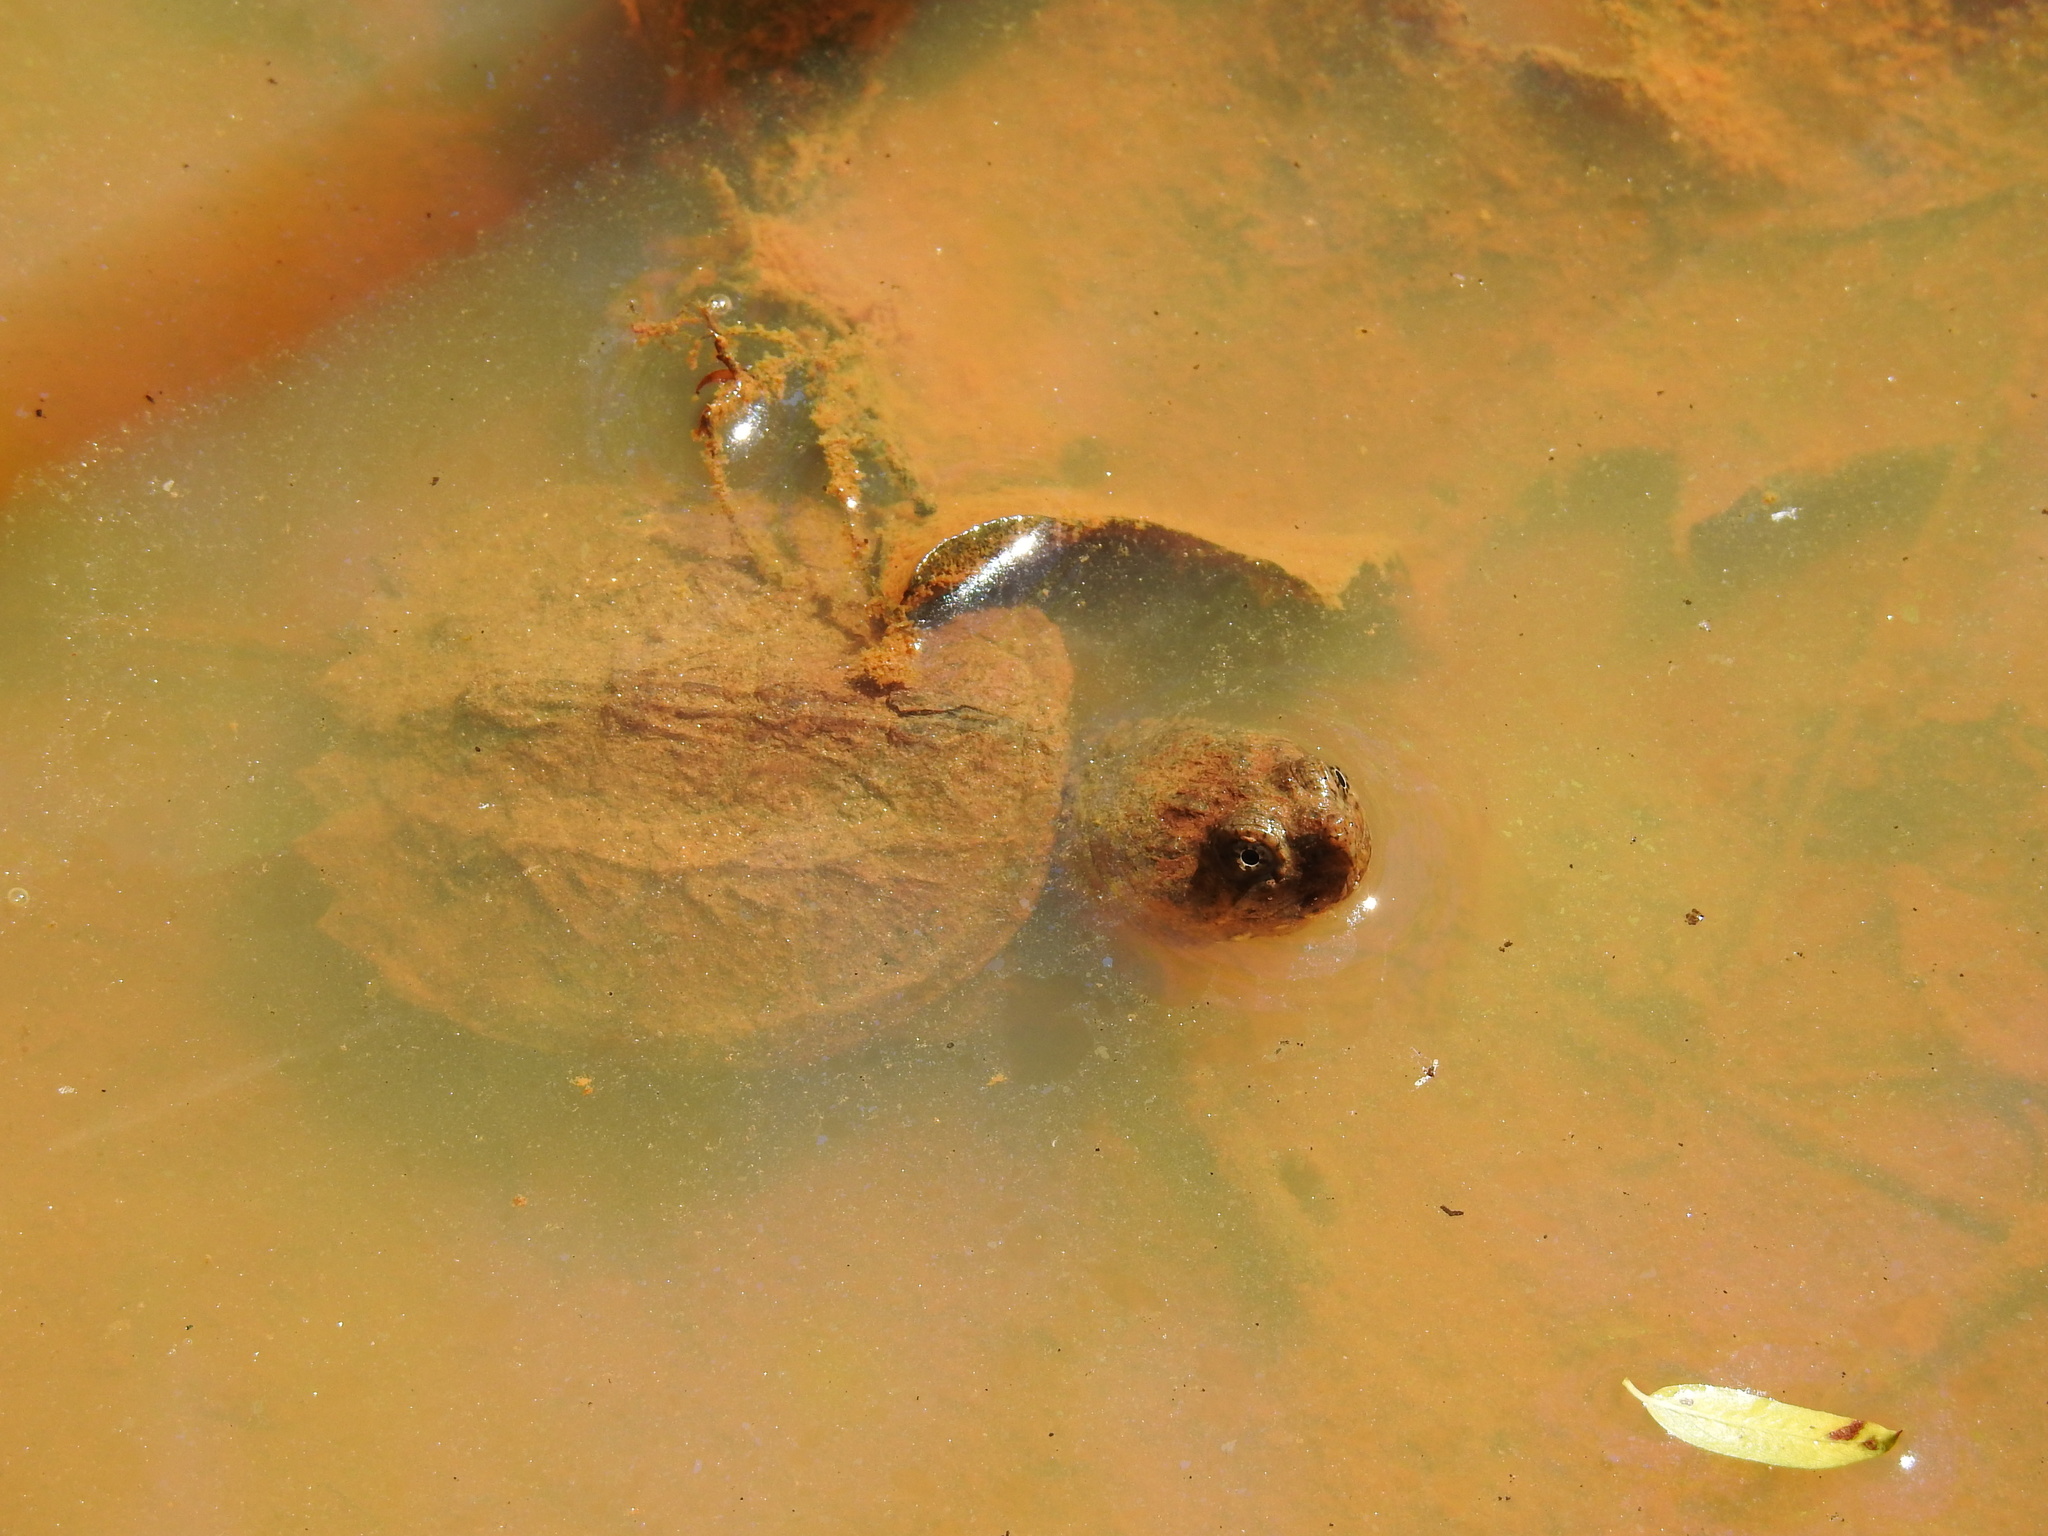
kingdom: Animalia
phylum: Chordata
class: Testudines
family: Chelydridae
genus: Chelydra
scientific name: Chelydra serpentina
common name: Common snapping turtle
